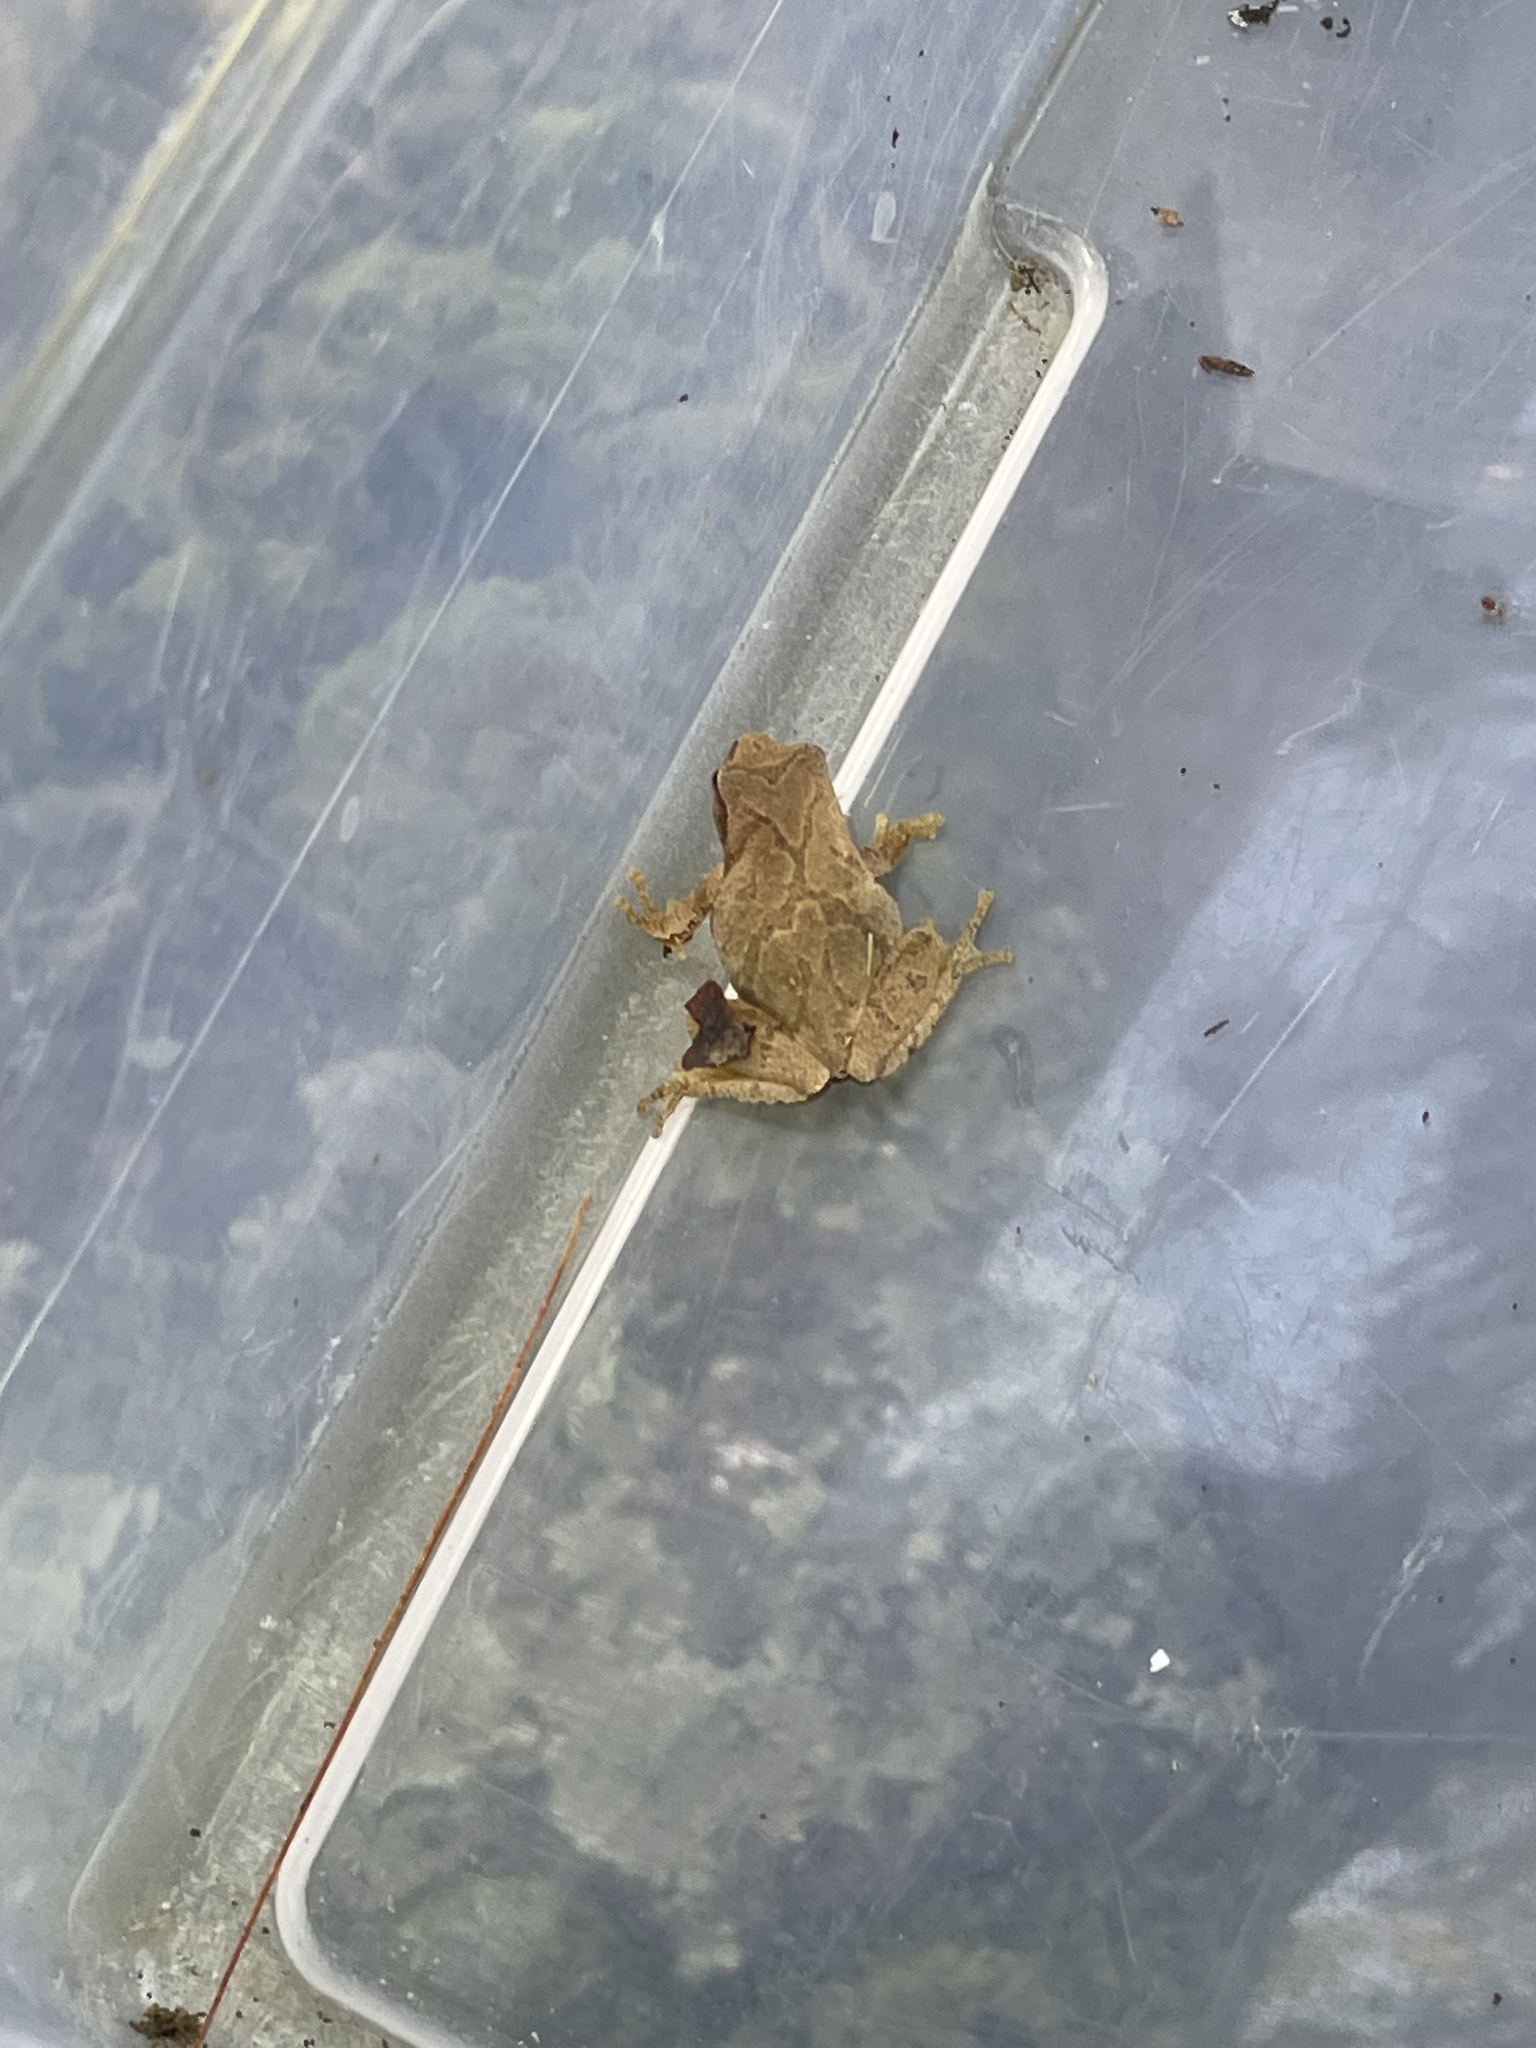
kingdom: Animalia
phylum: Chordata
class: Amphibia
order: Anura
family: Hylidae
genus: Pseudacris
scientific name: Pseudacris crucifer
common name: Spring peeper
